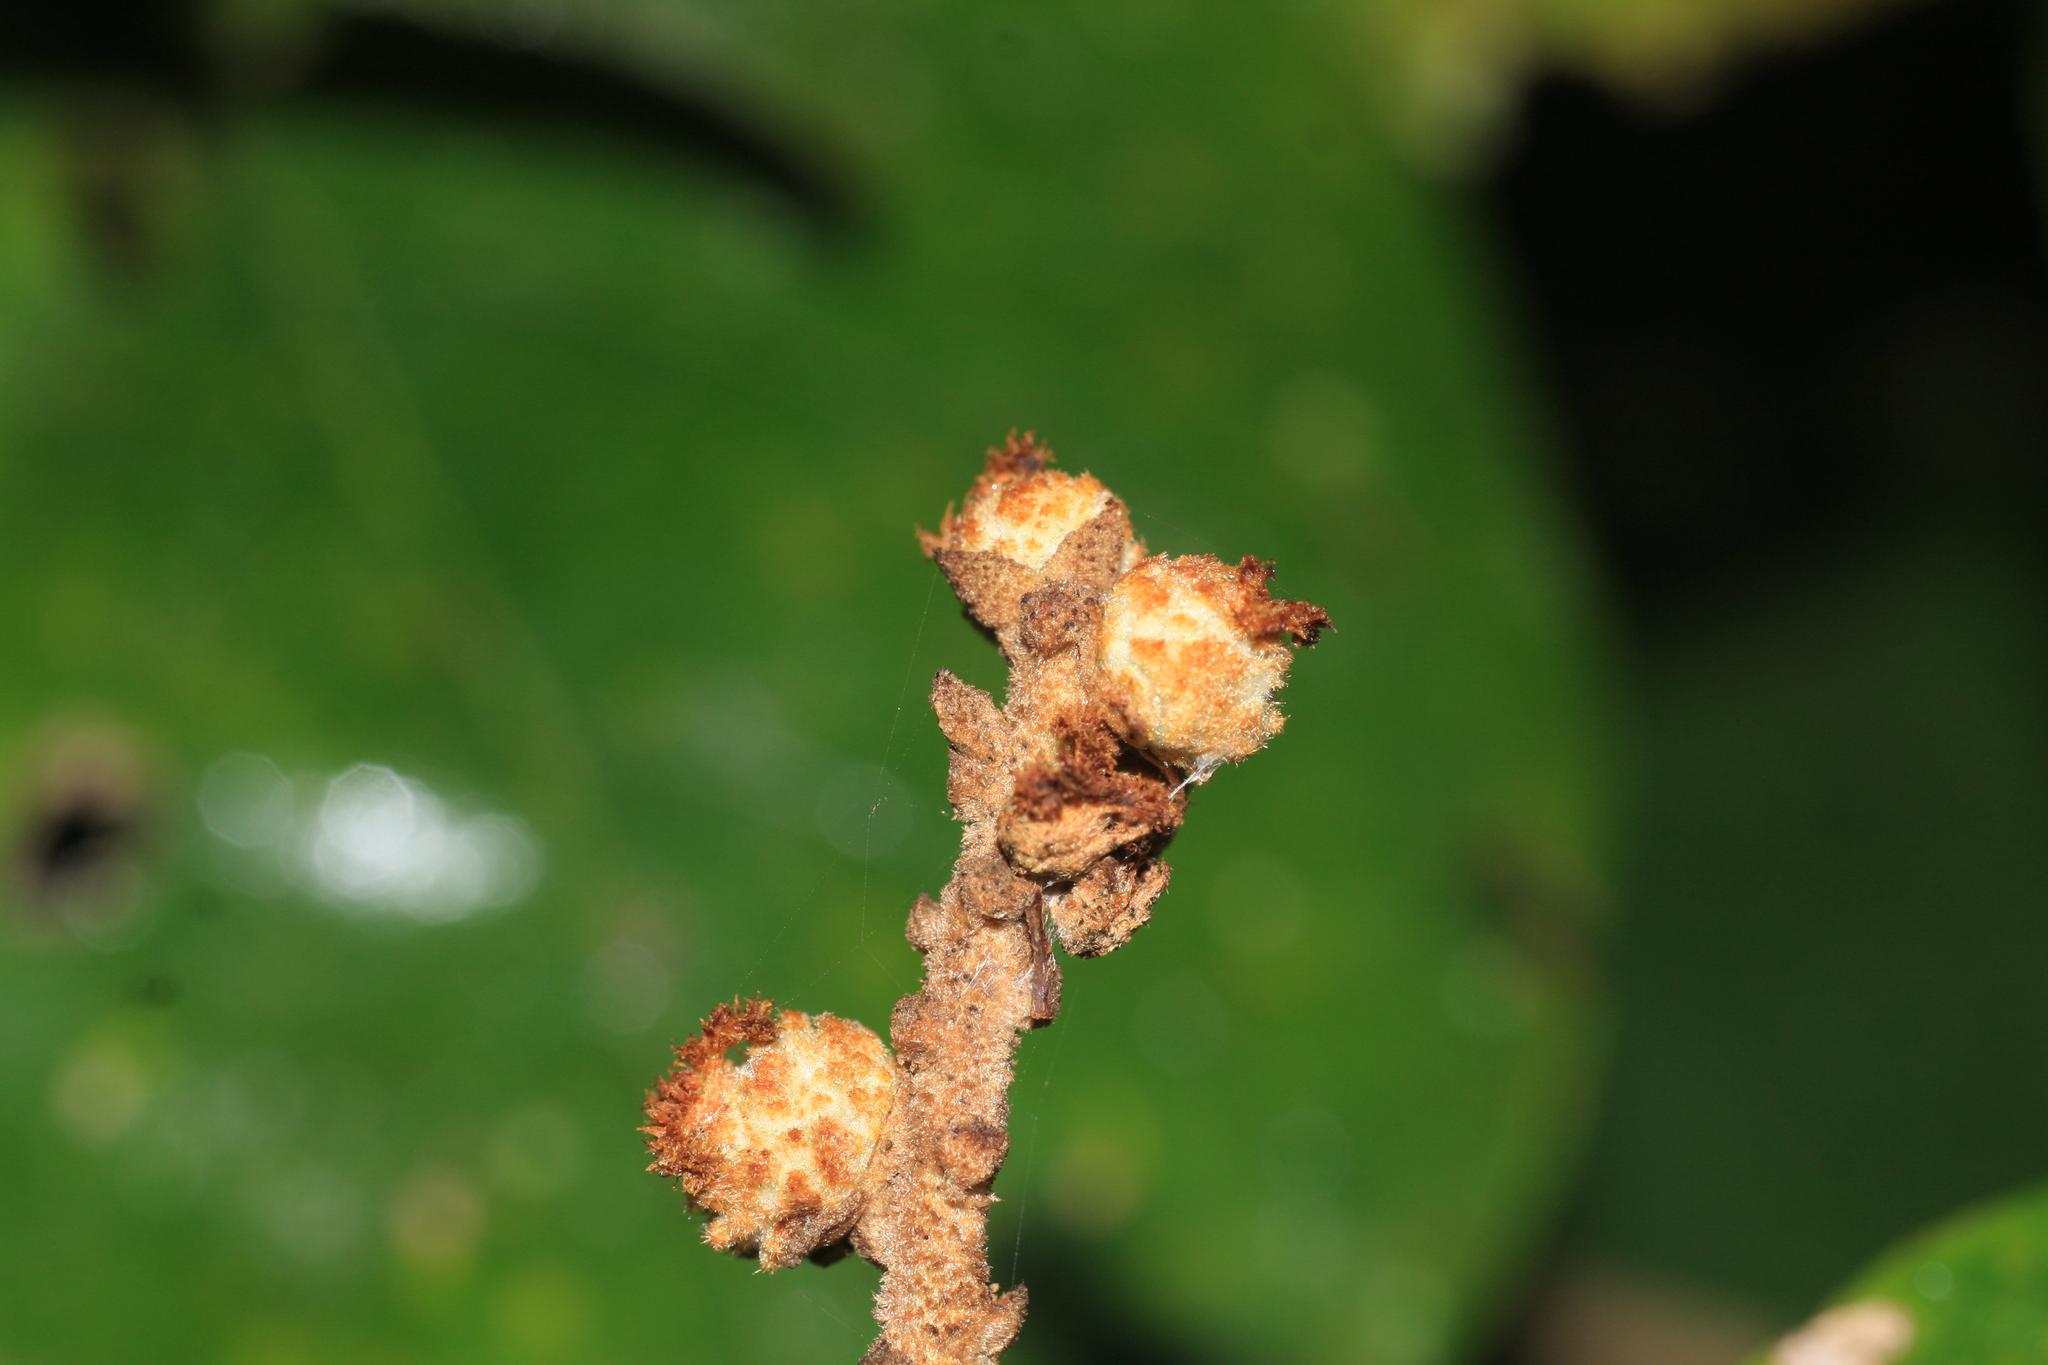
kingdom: Plantae
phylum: Tracheophyta
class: Magnoliopsida
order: Malpighiales
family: Euphorbiaceae
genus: Mallotus
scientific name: Mallotus tetracoccus
